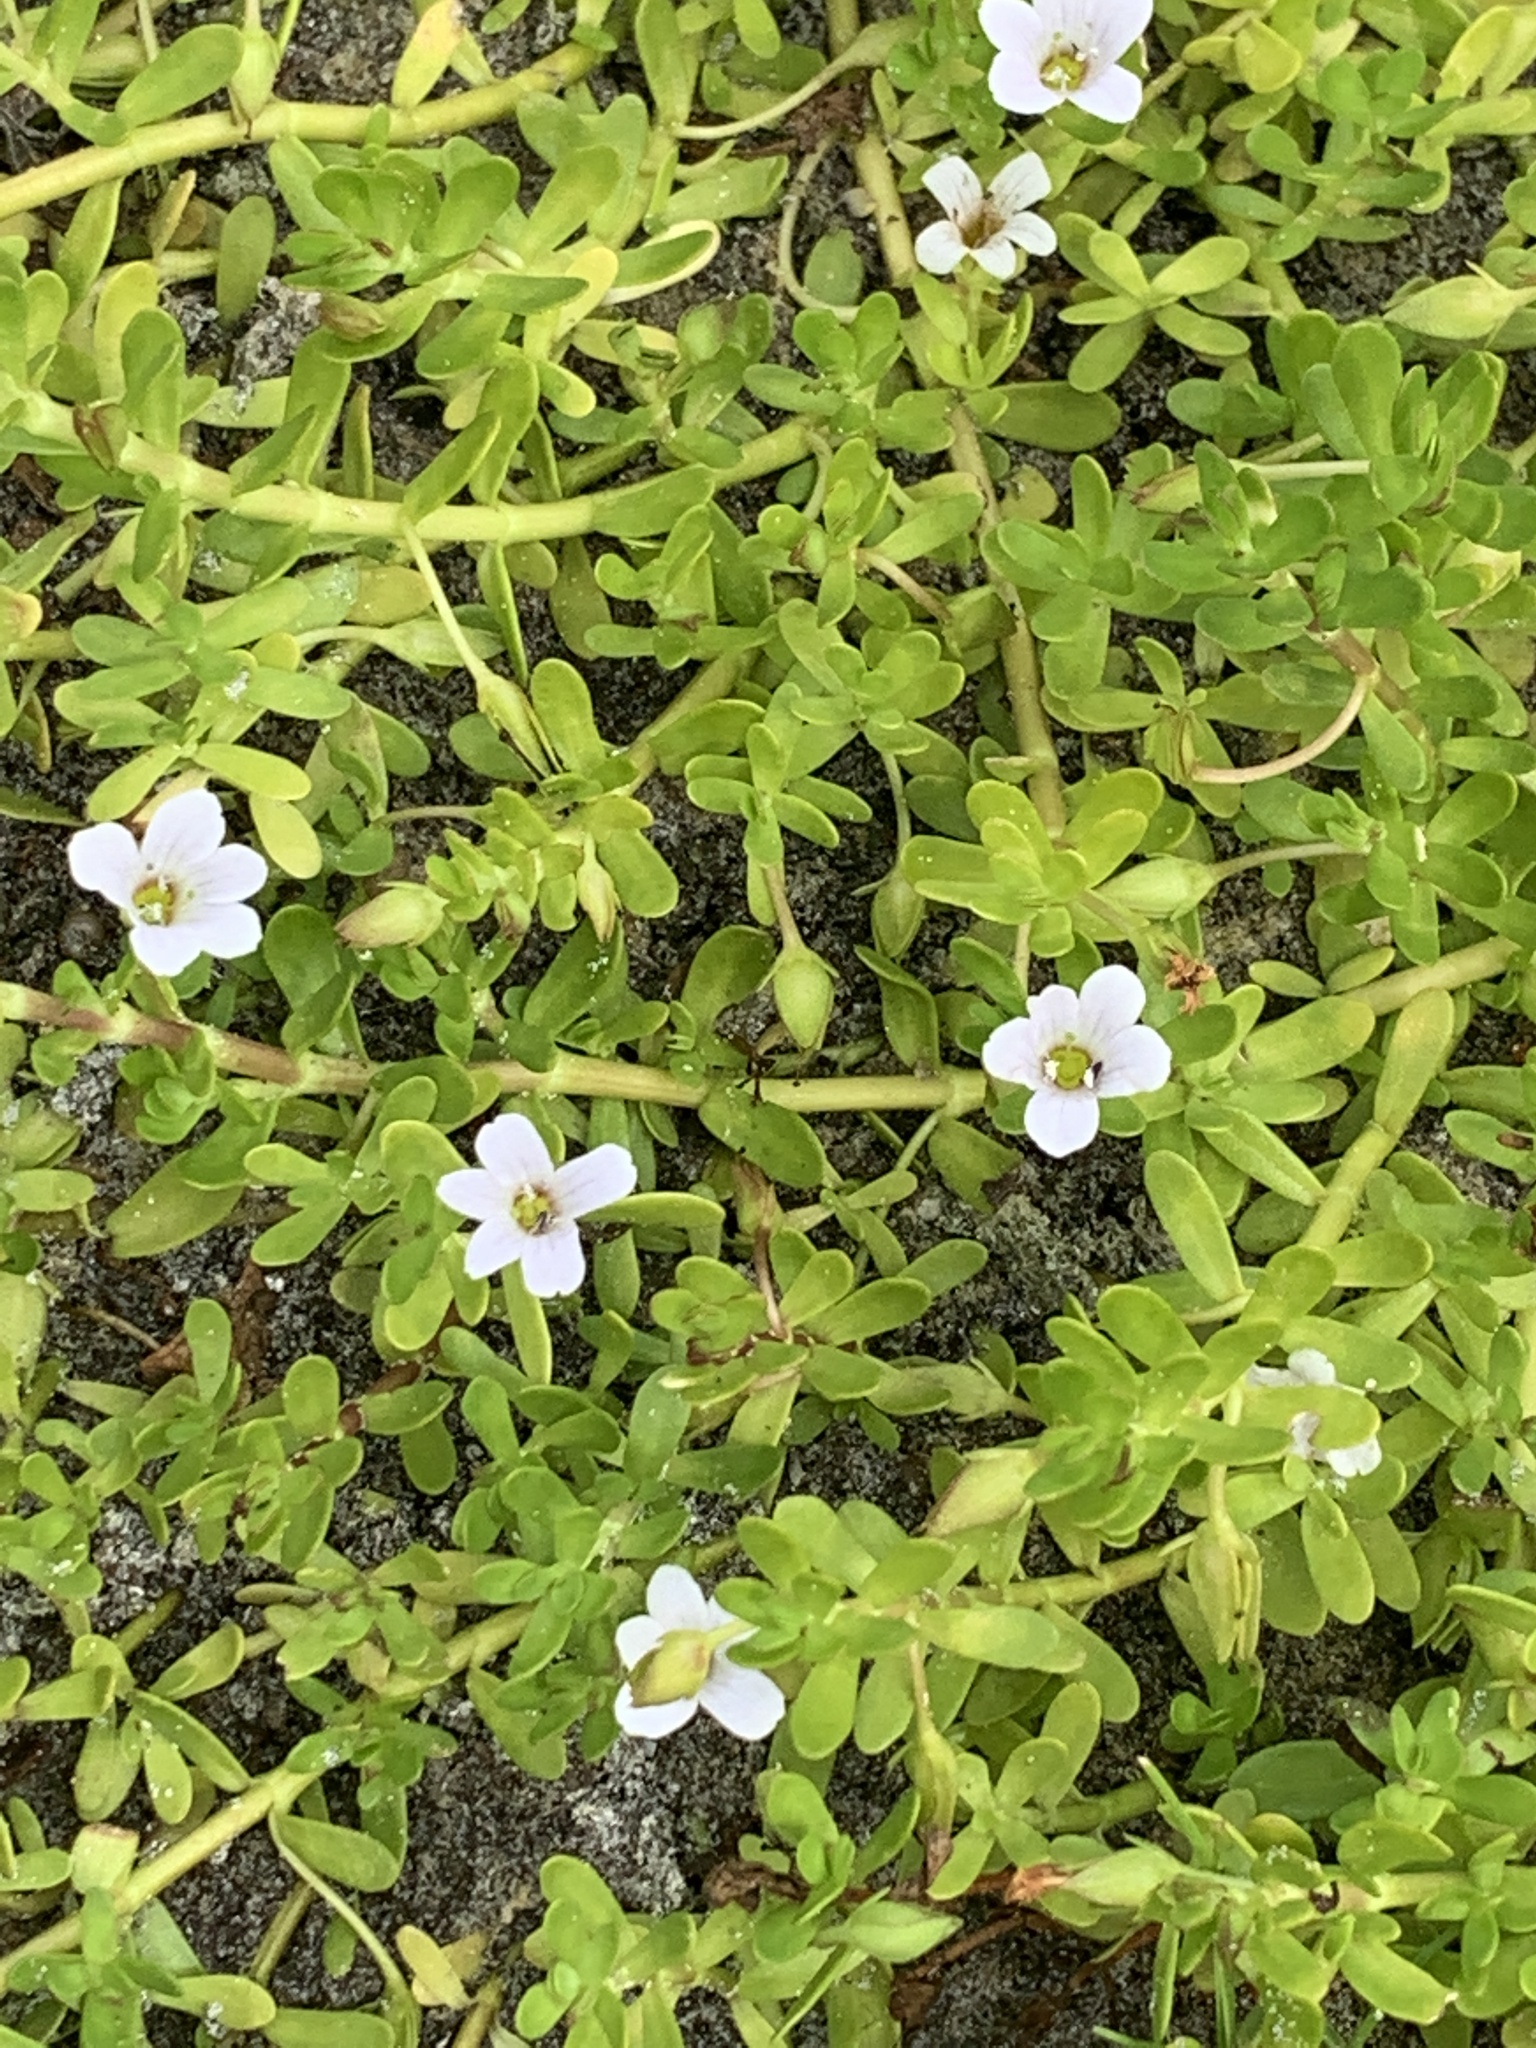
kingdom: Plantae
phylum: Tracheophyta
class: Magnoliopsida
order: Lamiales
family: Plantaginaceae
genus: Bacopa
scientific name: Bacopa monnieri
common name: Indian-pennywort
